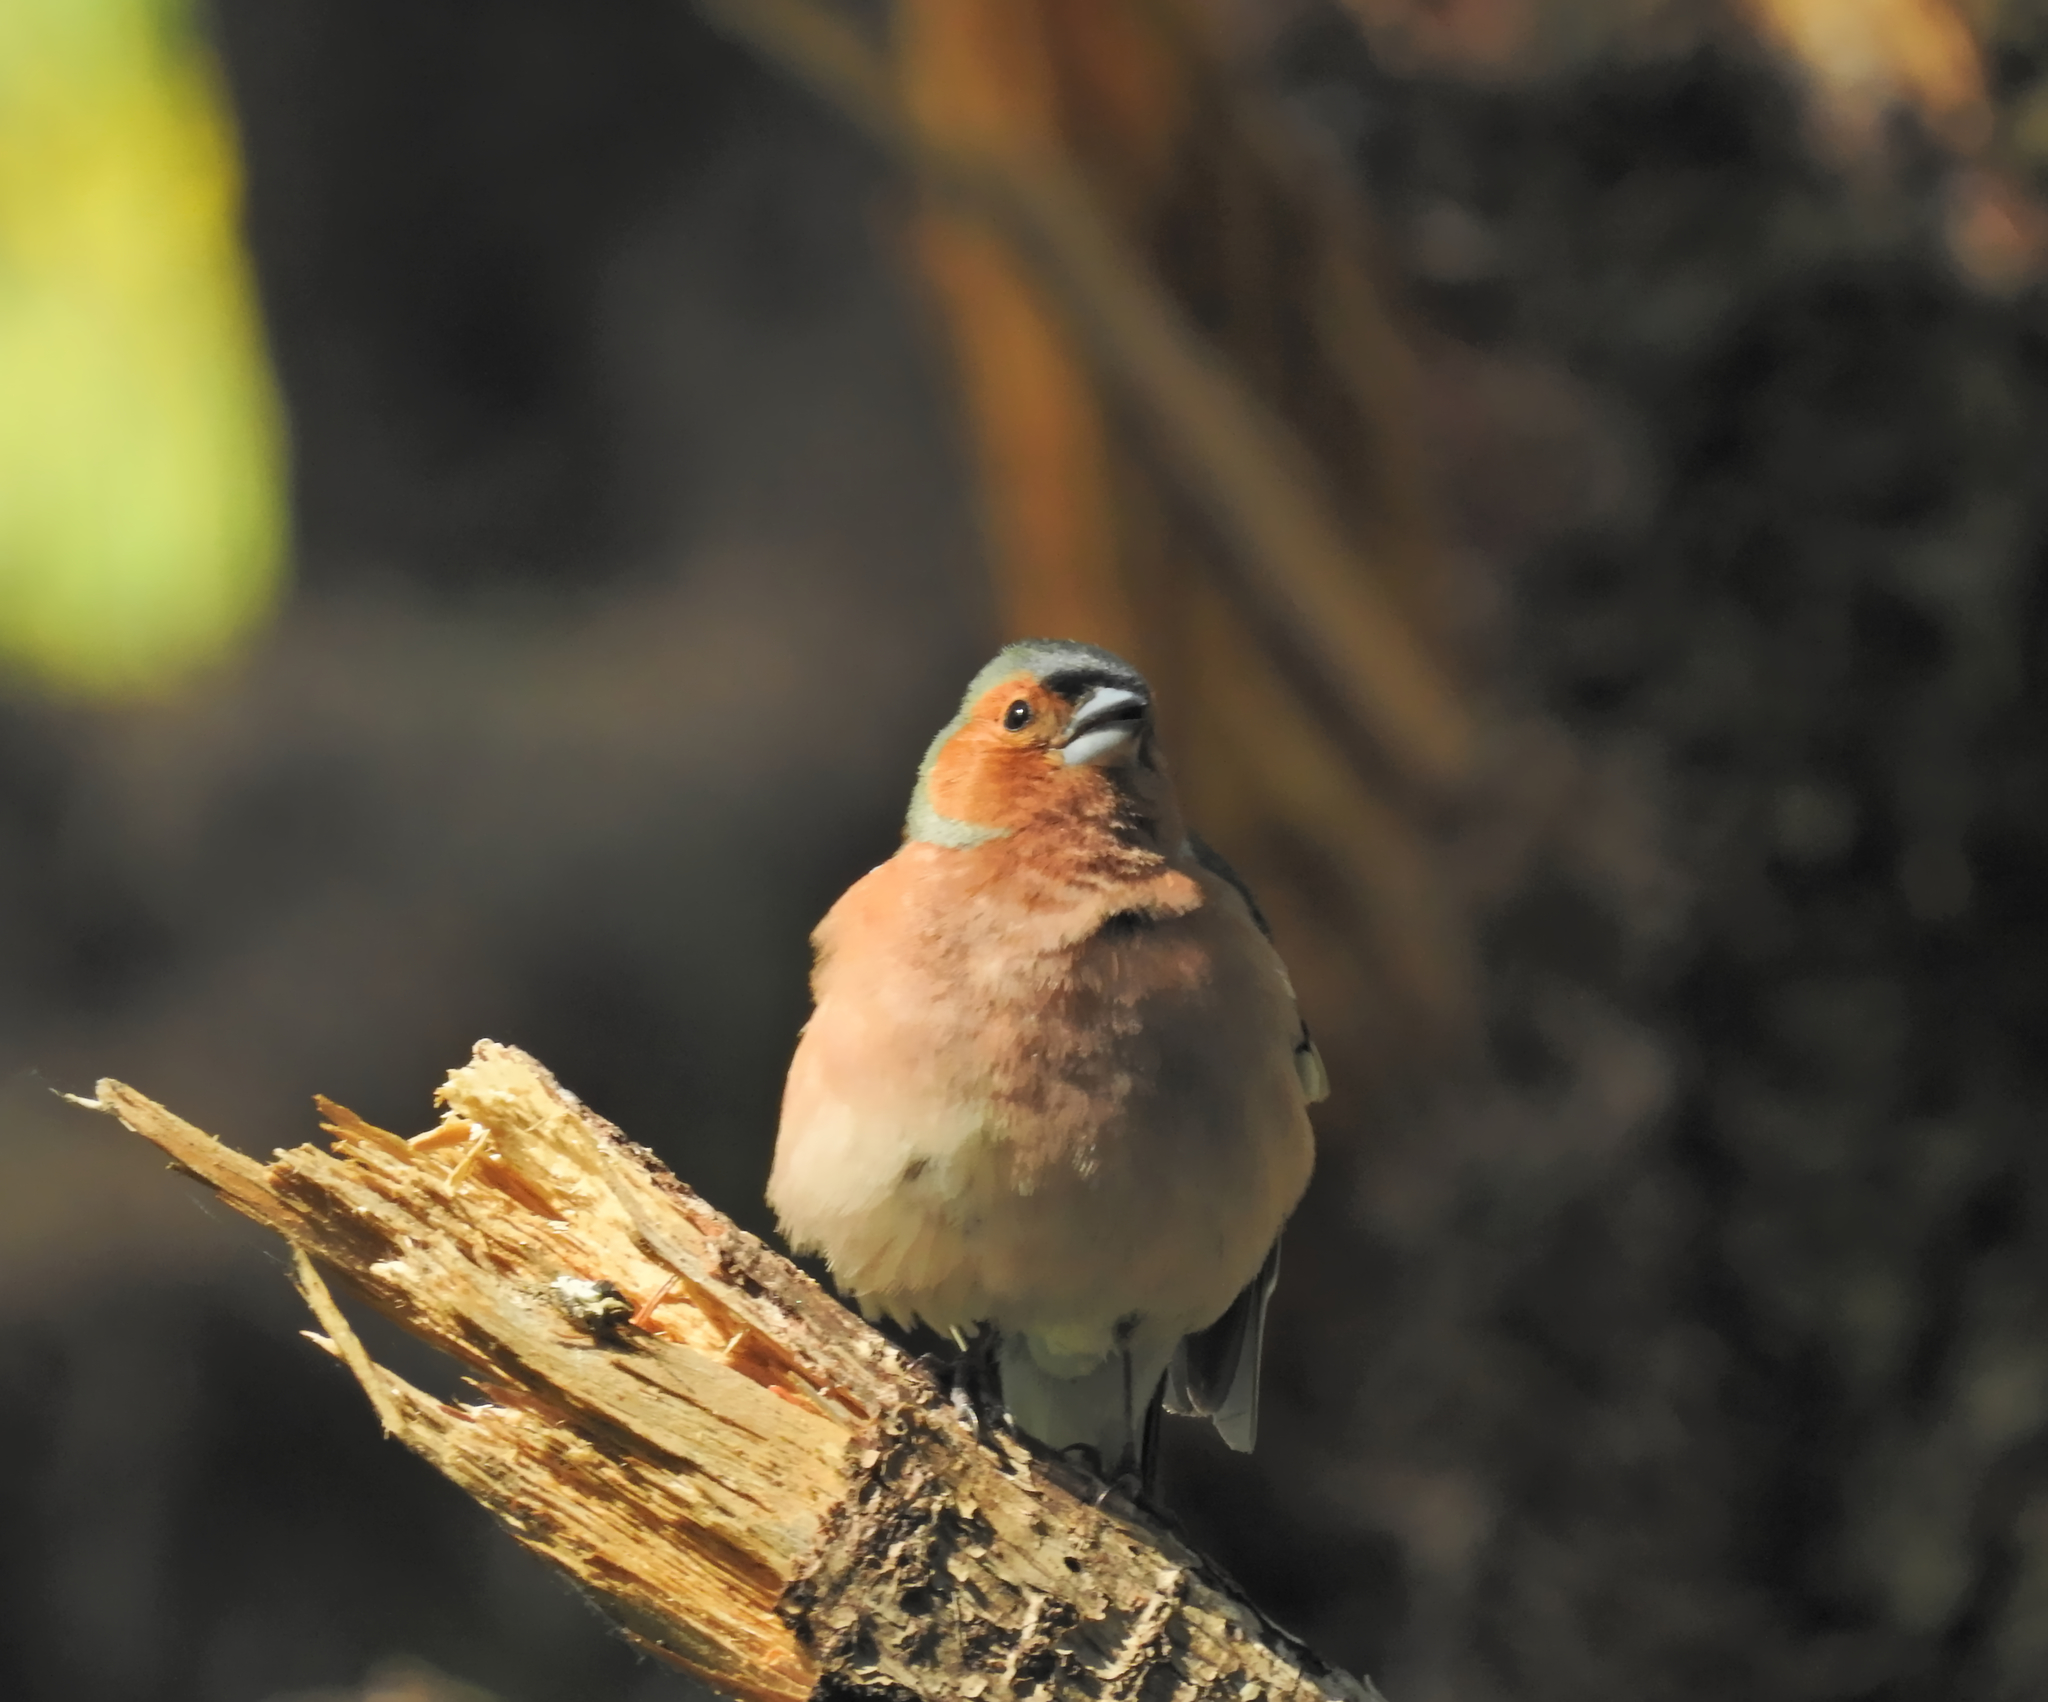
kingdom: Animalia
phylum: Chordata
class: Aves
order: Passeriformes
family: Fringillidae
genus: Fringilla
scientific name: Fringilla coelebs
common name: Common chaffinch
